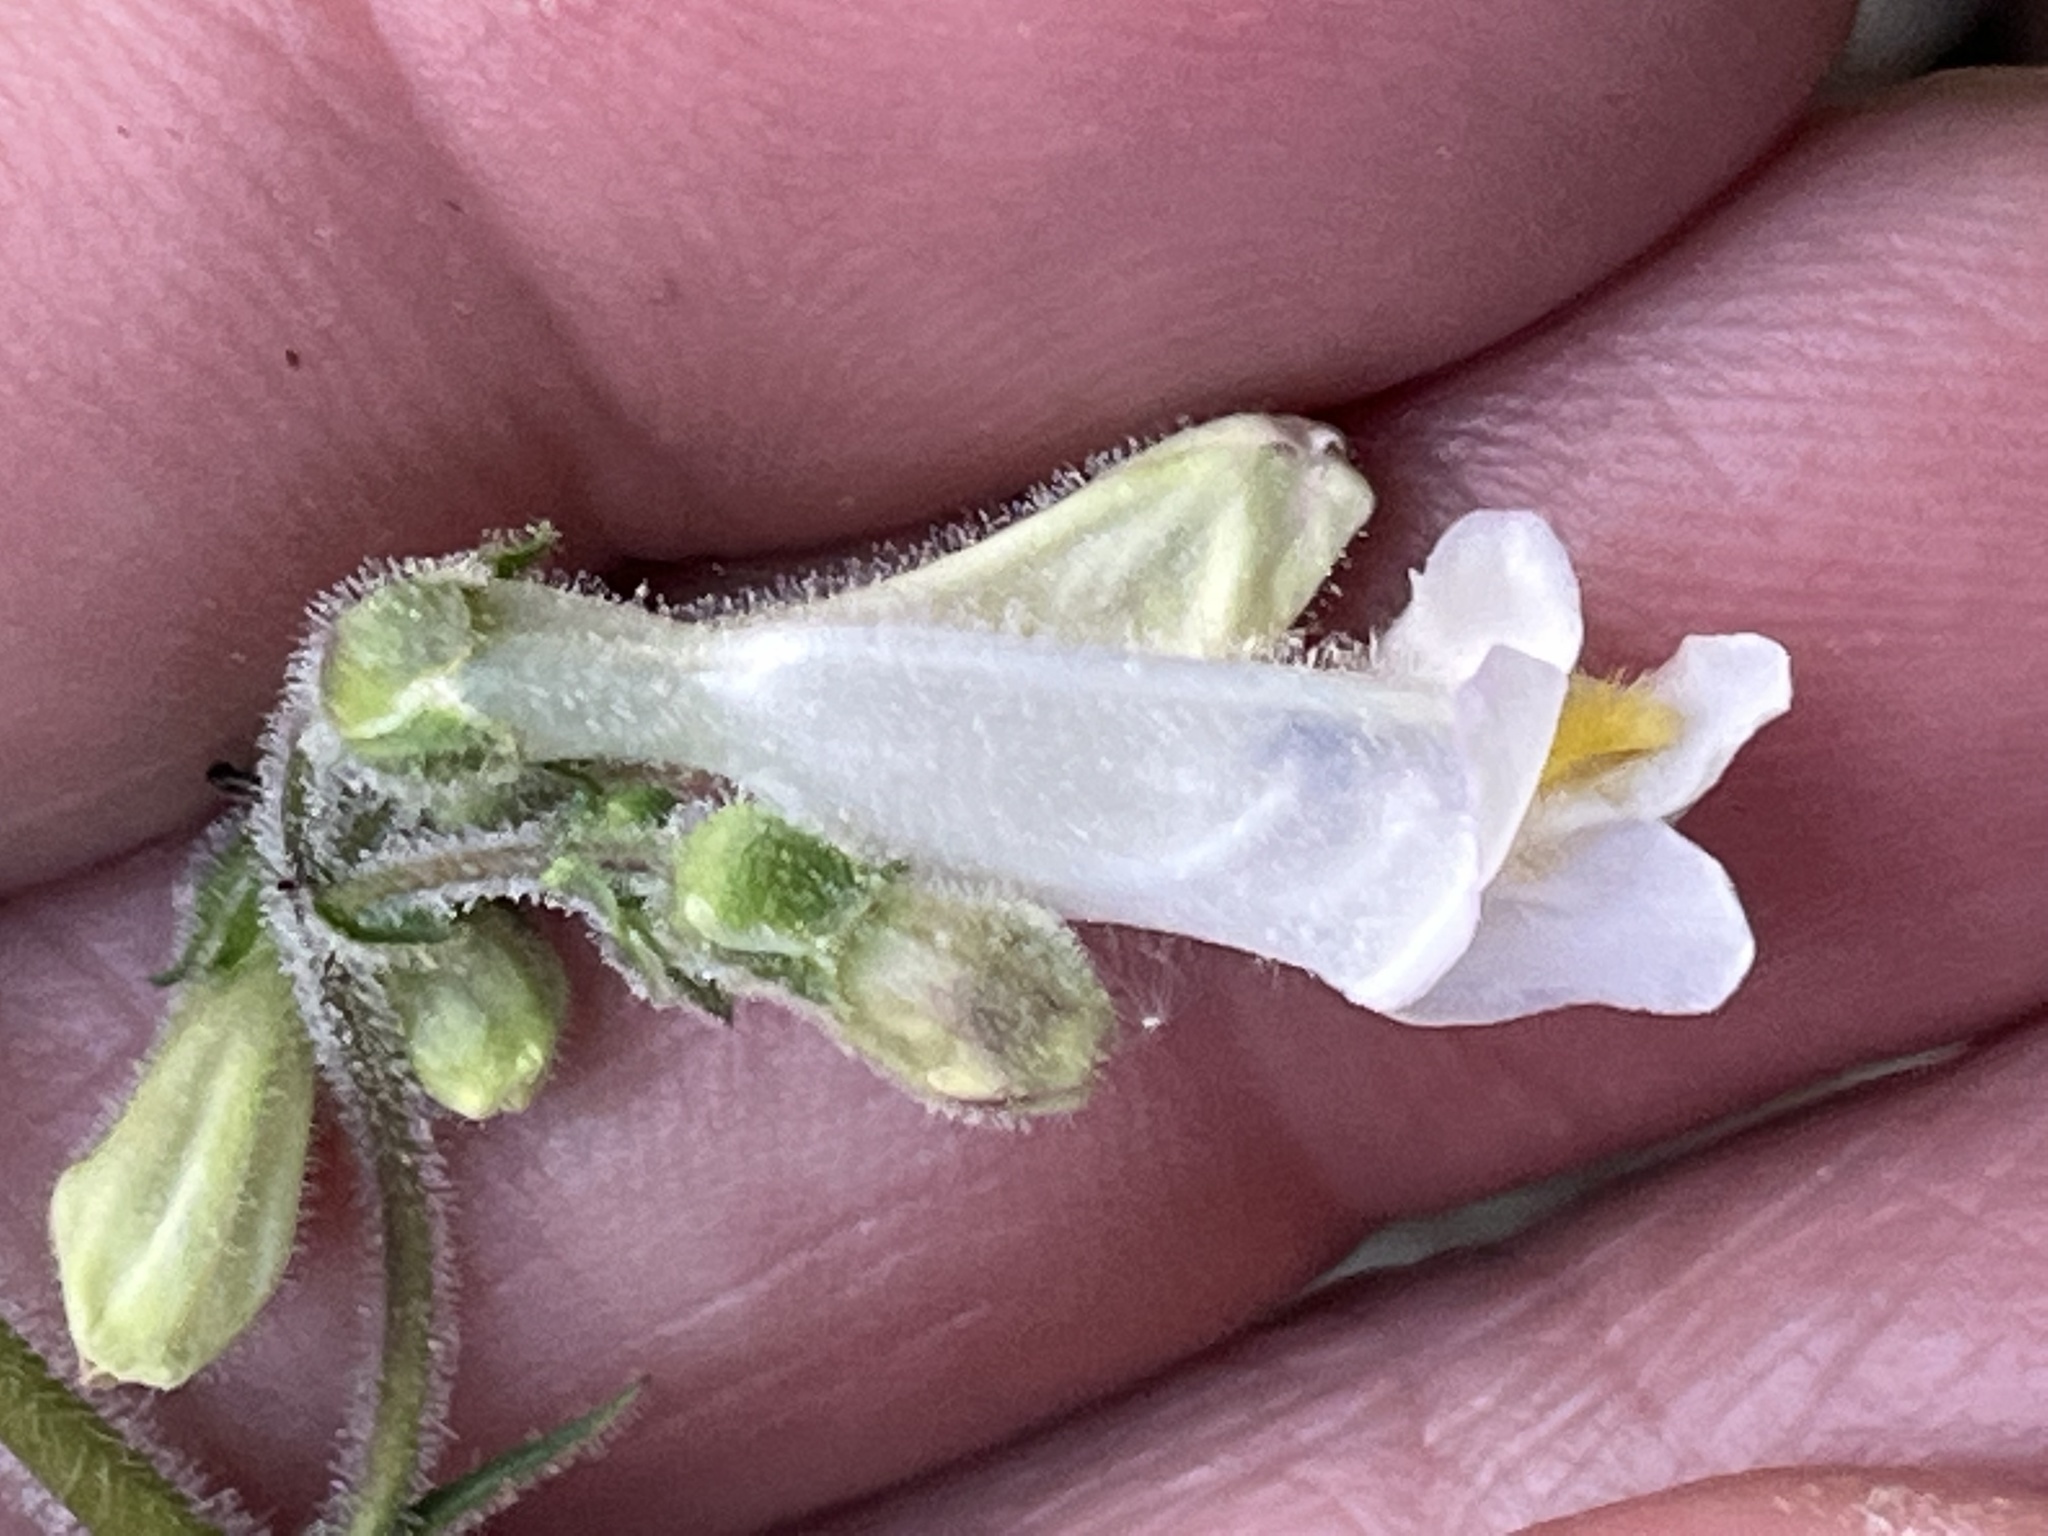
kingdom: Plantae
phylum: Tracheophyta
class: Magnoliopsida
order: Lamiales
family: Plantaginaceae
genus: Penstemon
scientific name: Penstemon tenuiflorus
